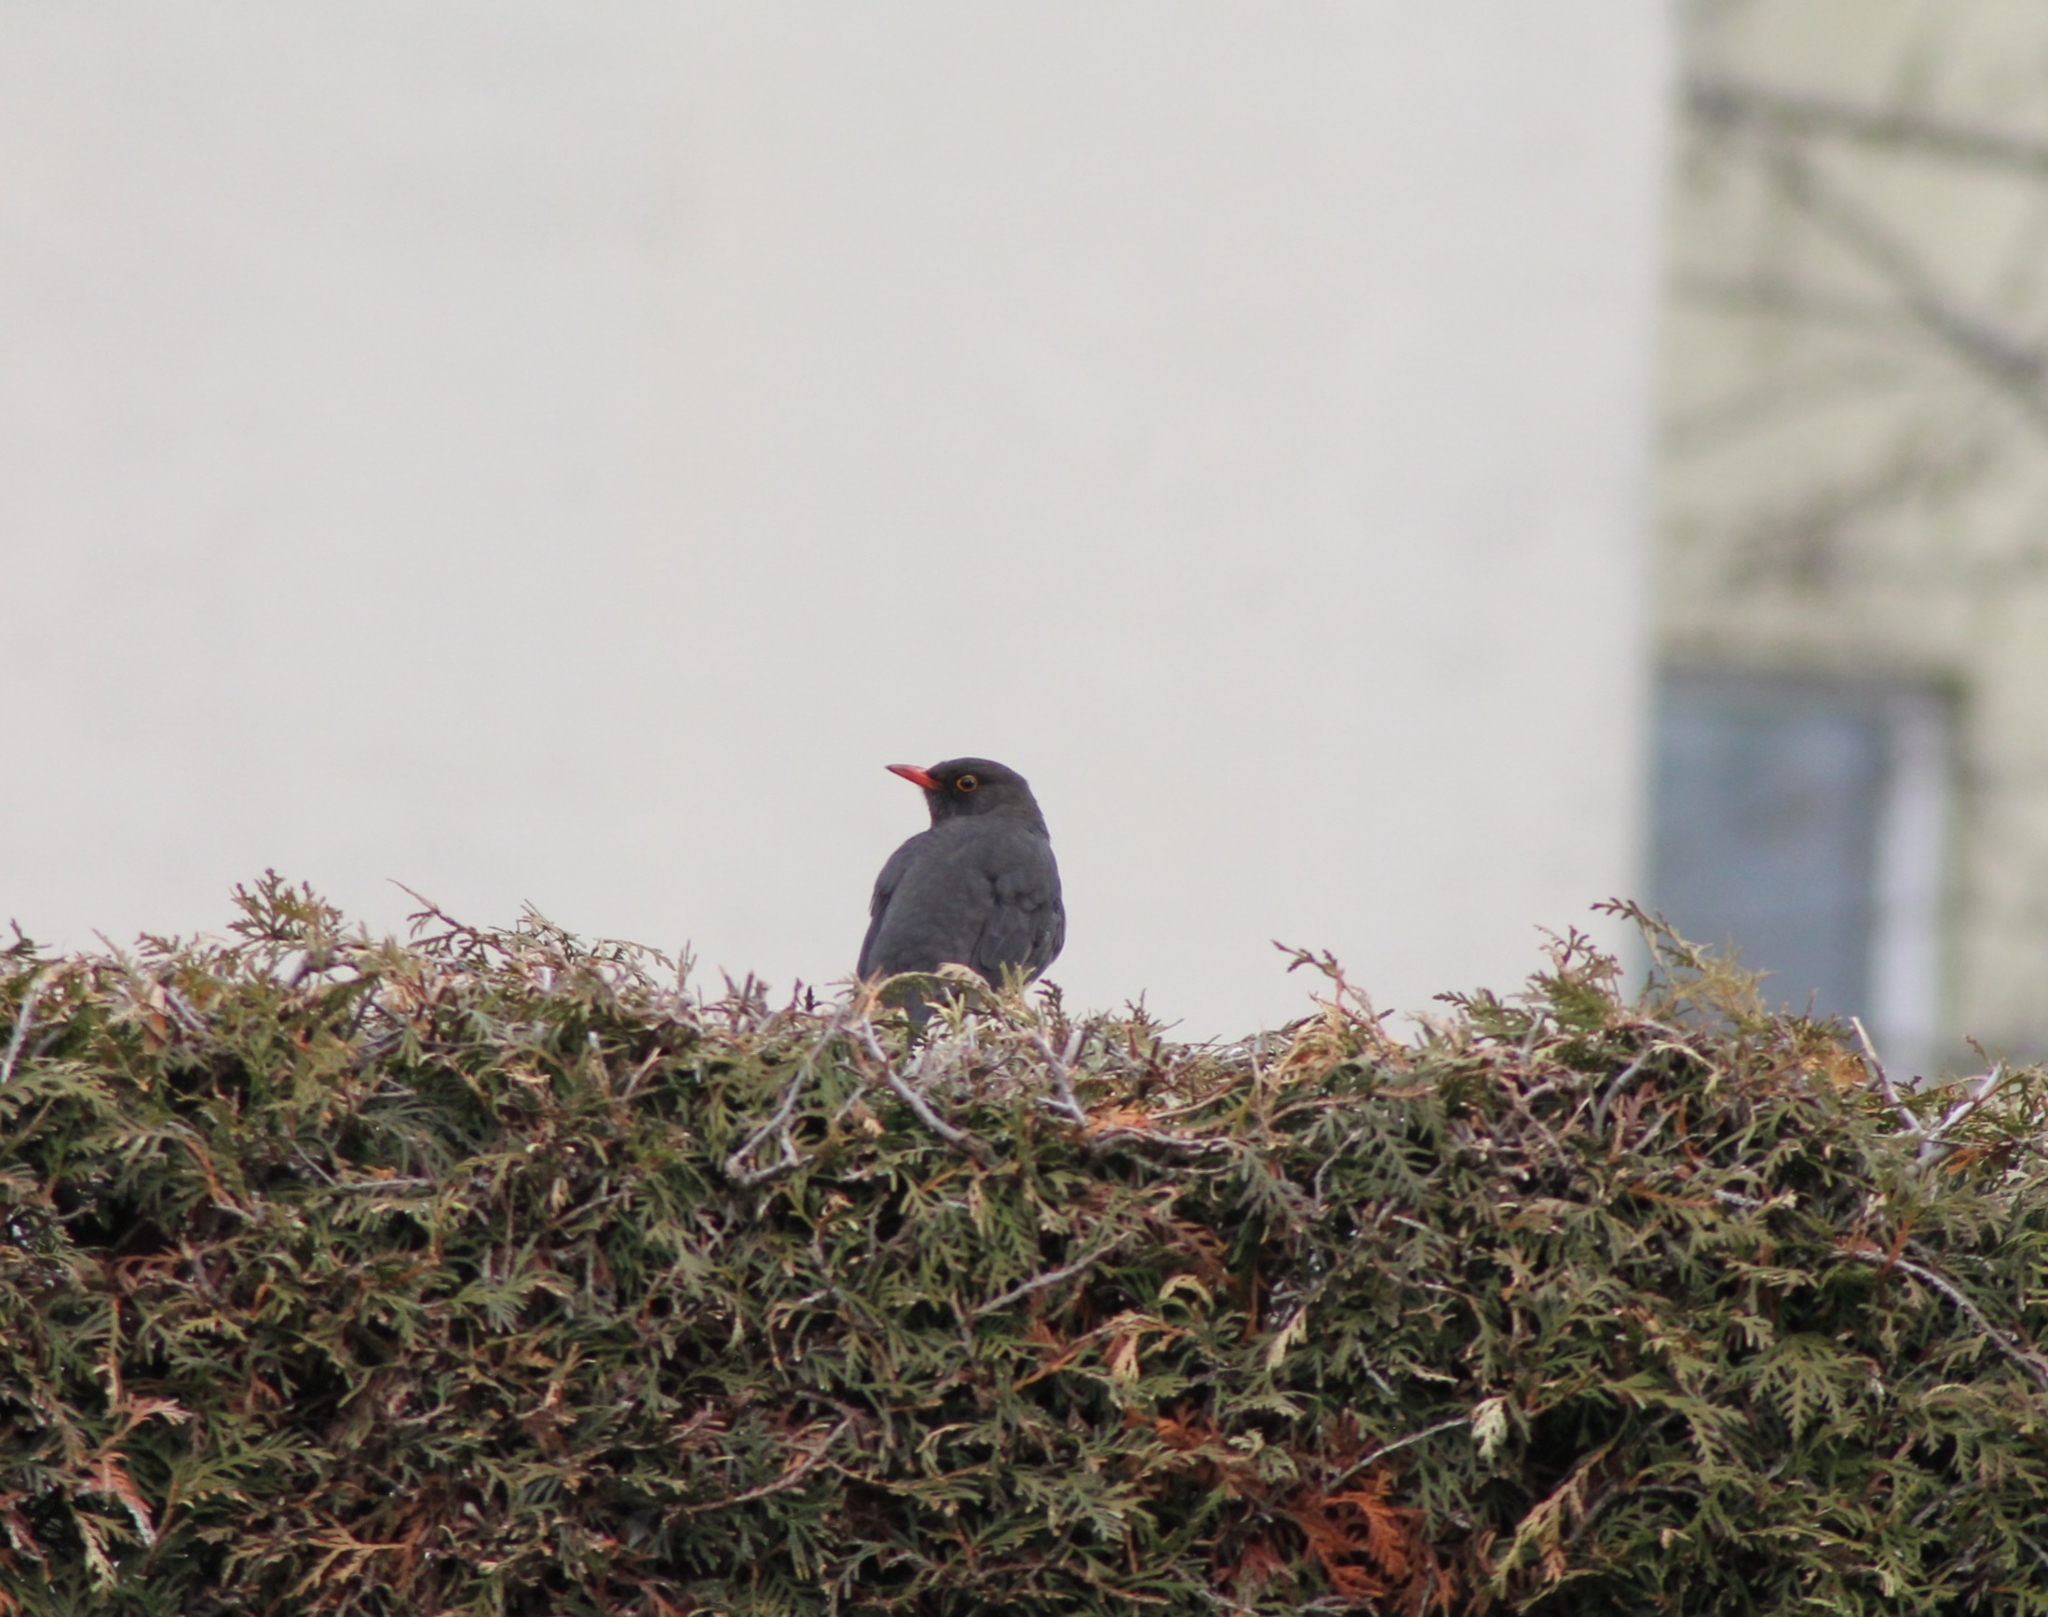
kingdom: Animalia
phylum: Chordata
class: Aves
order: Passeriformes
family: Turdidae
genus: Turdus
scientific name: Turdus merula
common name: Common blackbird
